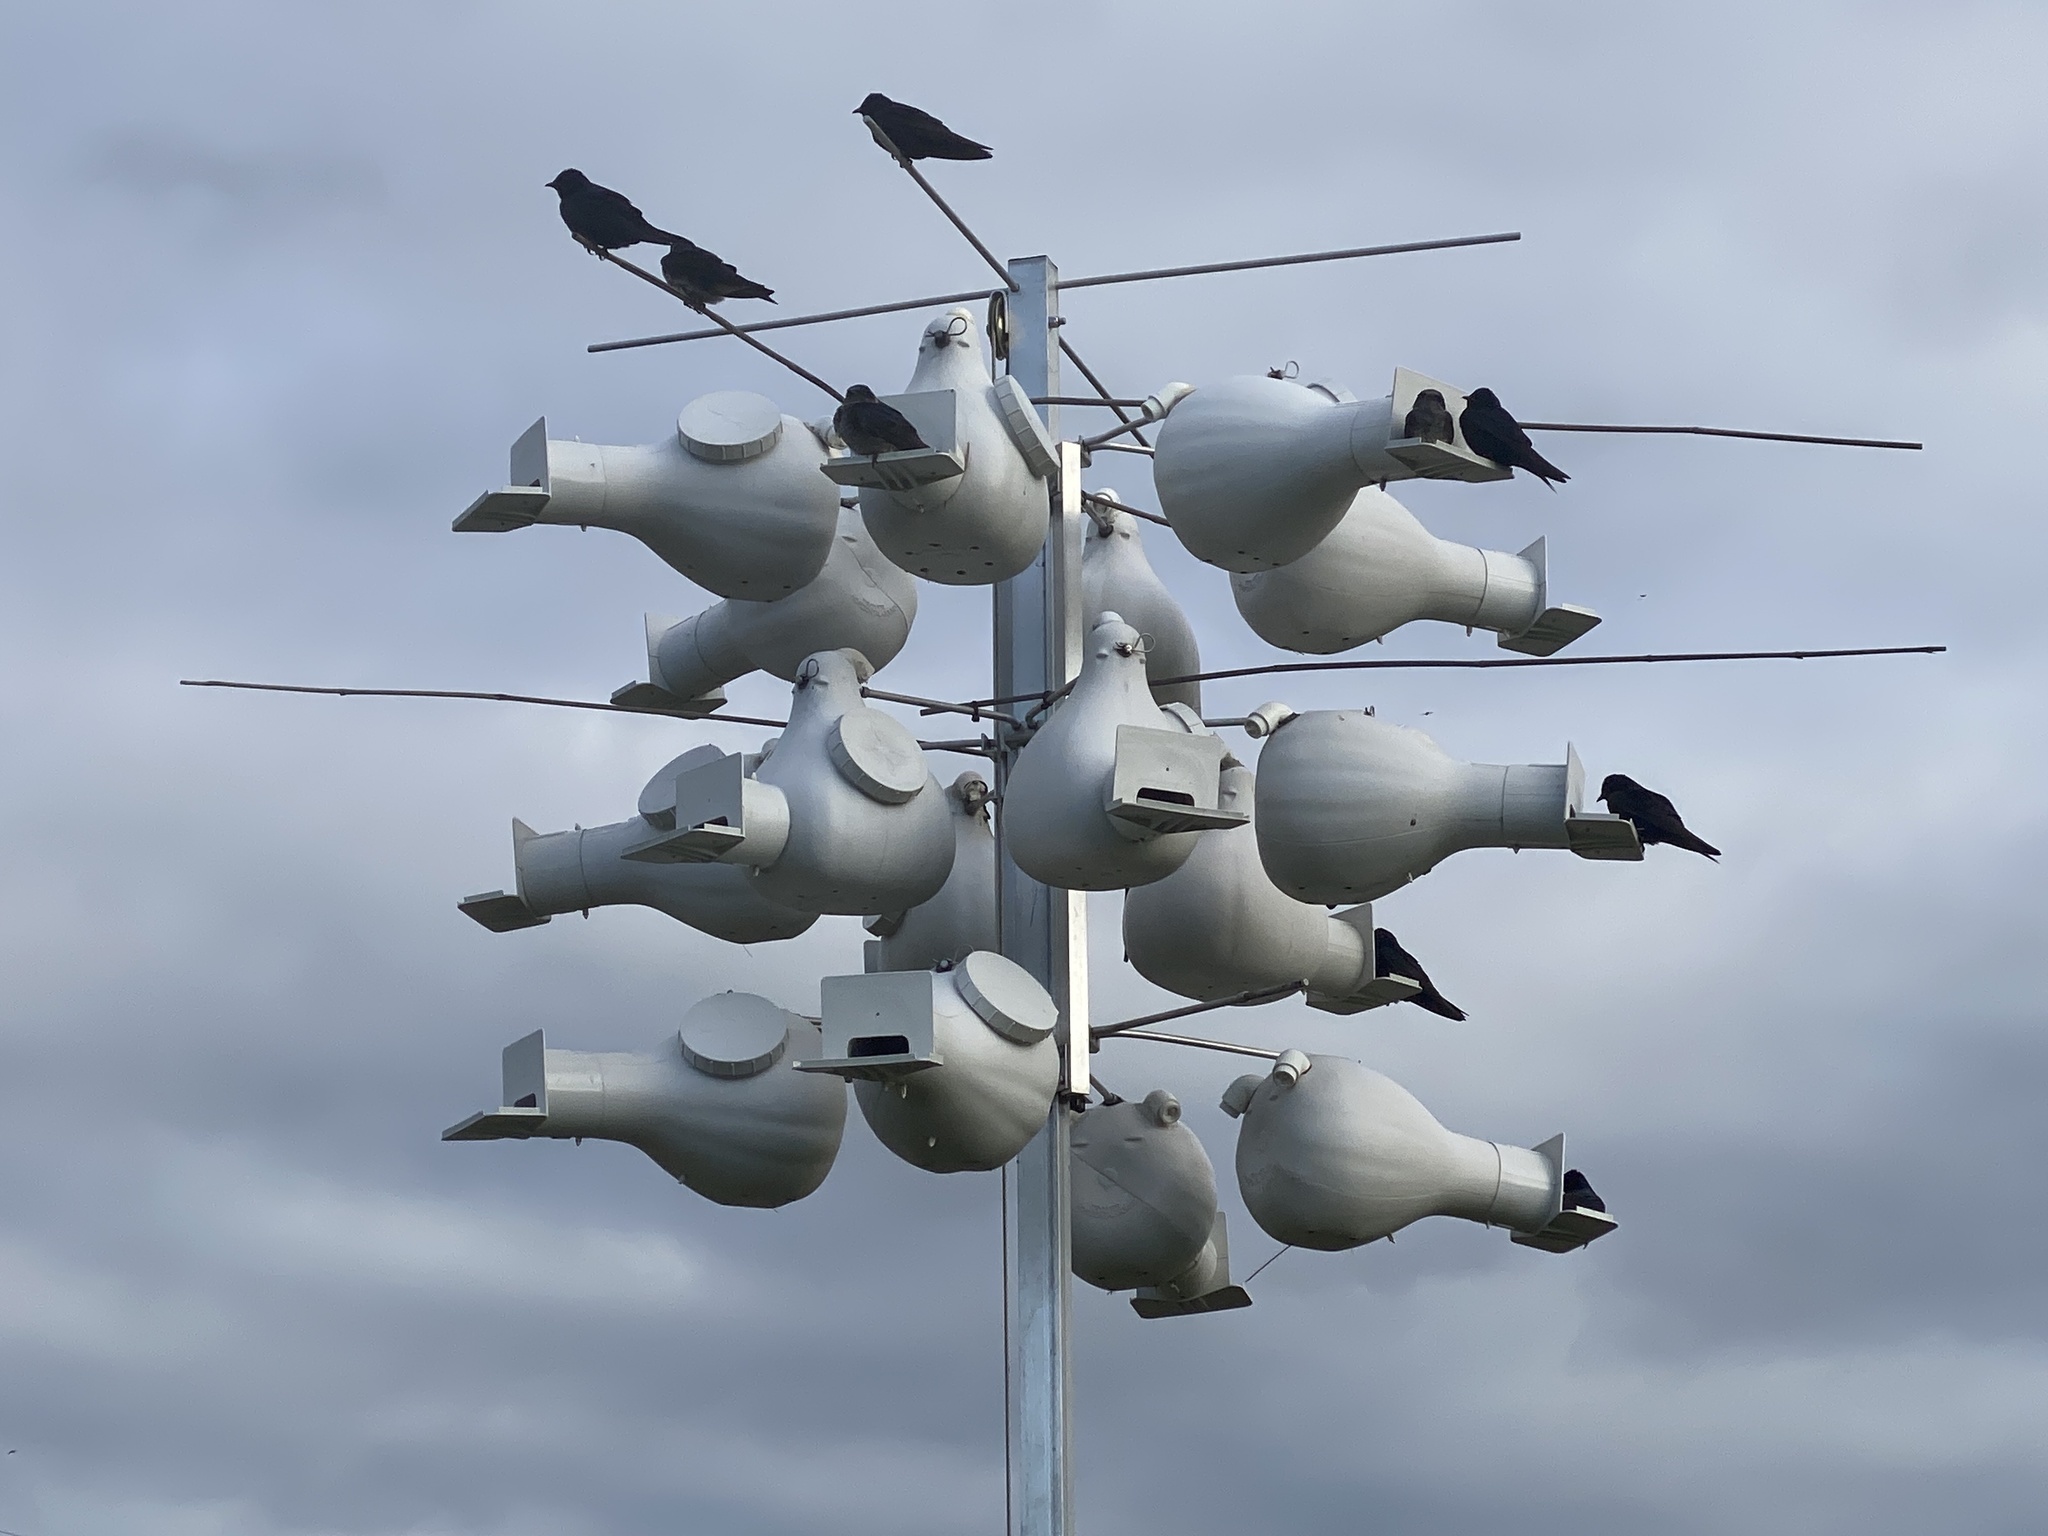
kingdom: Animalia
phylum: Chordata
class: Aves
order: Passeriformes
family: Hirundinidae
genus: Progne
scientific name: Progne subis
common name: Purple martin
